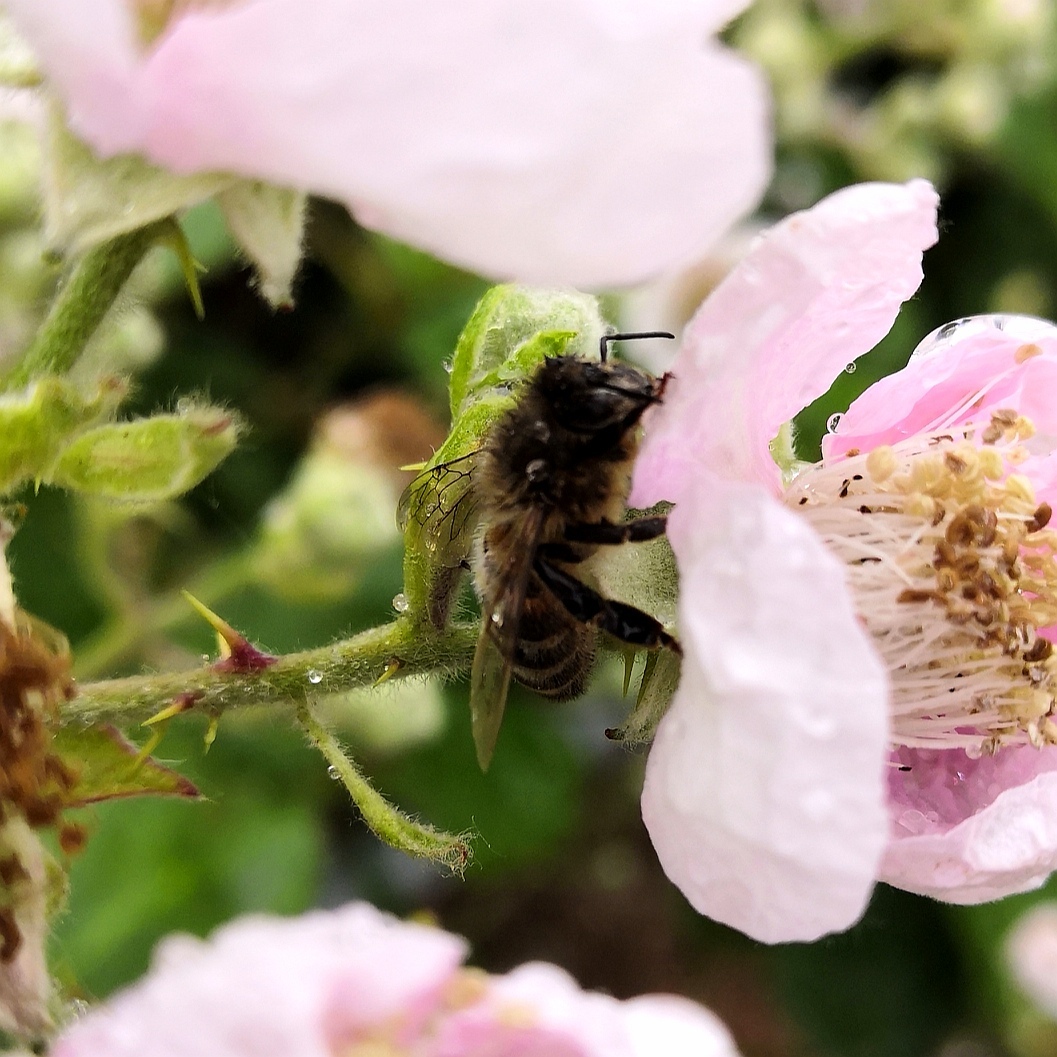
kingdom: Animalia
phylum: Arthropoda
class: Insecta
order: Hymenoptera
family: Apidae
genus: Apis
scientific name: Apis mellifera
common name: Honey bee
